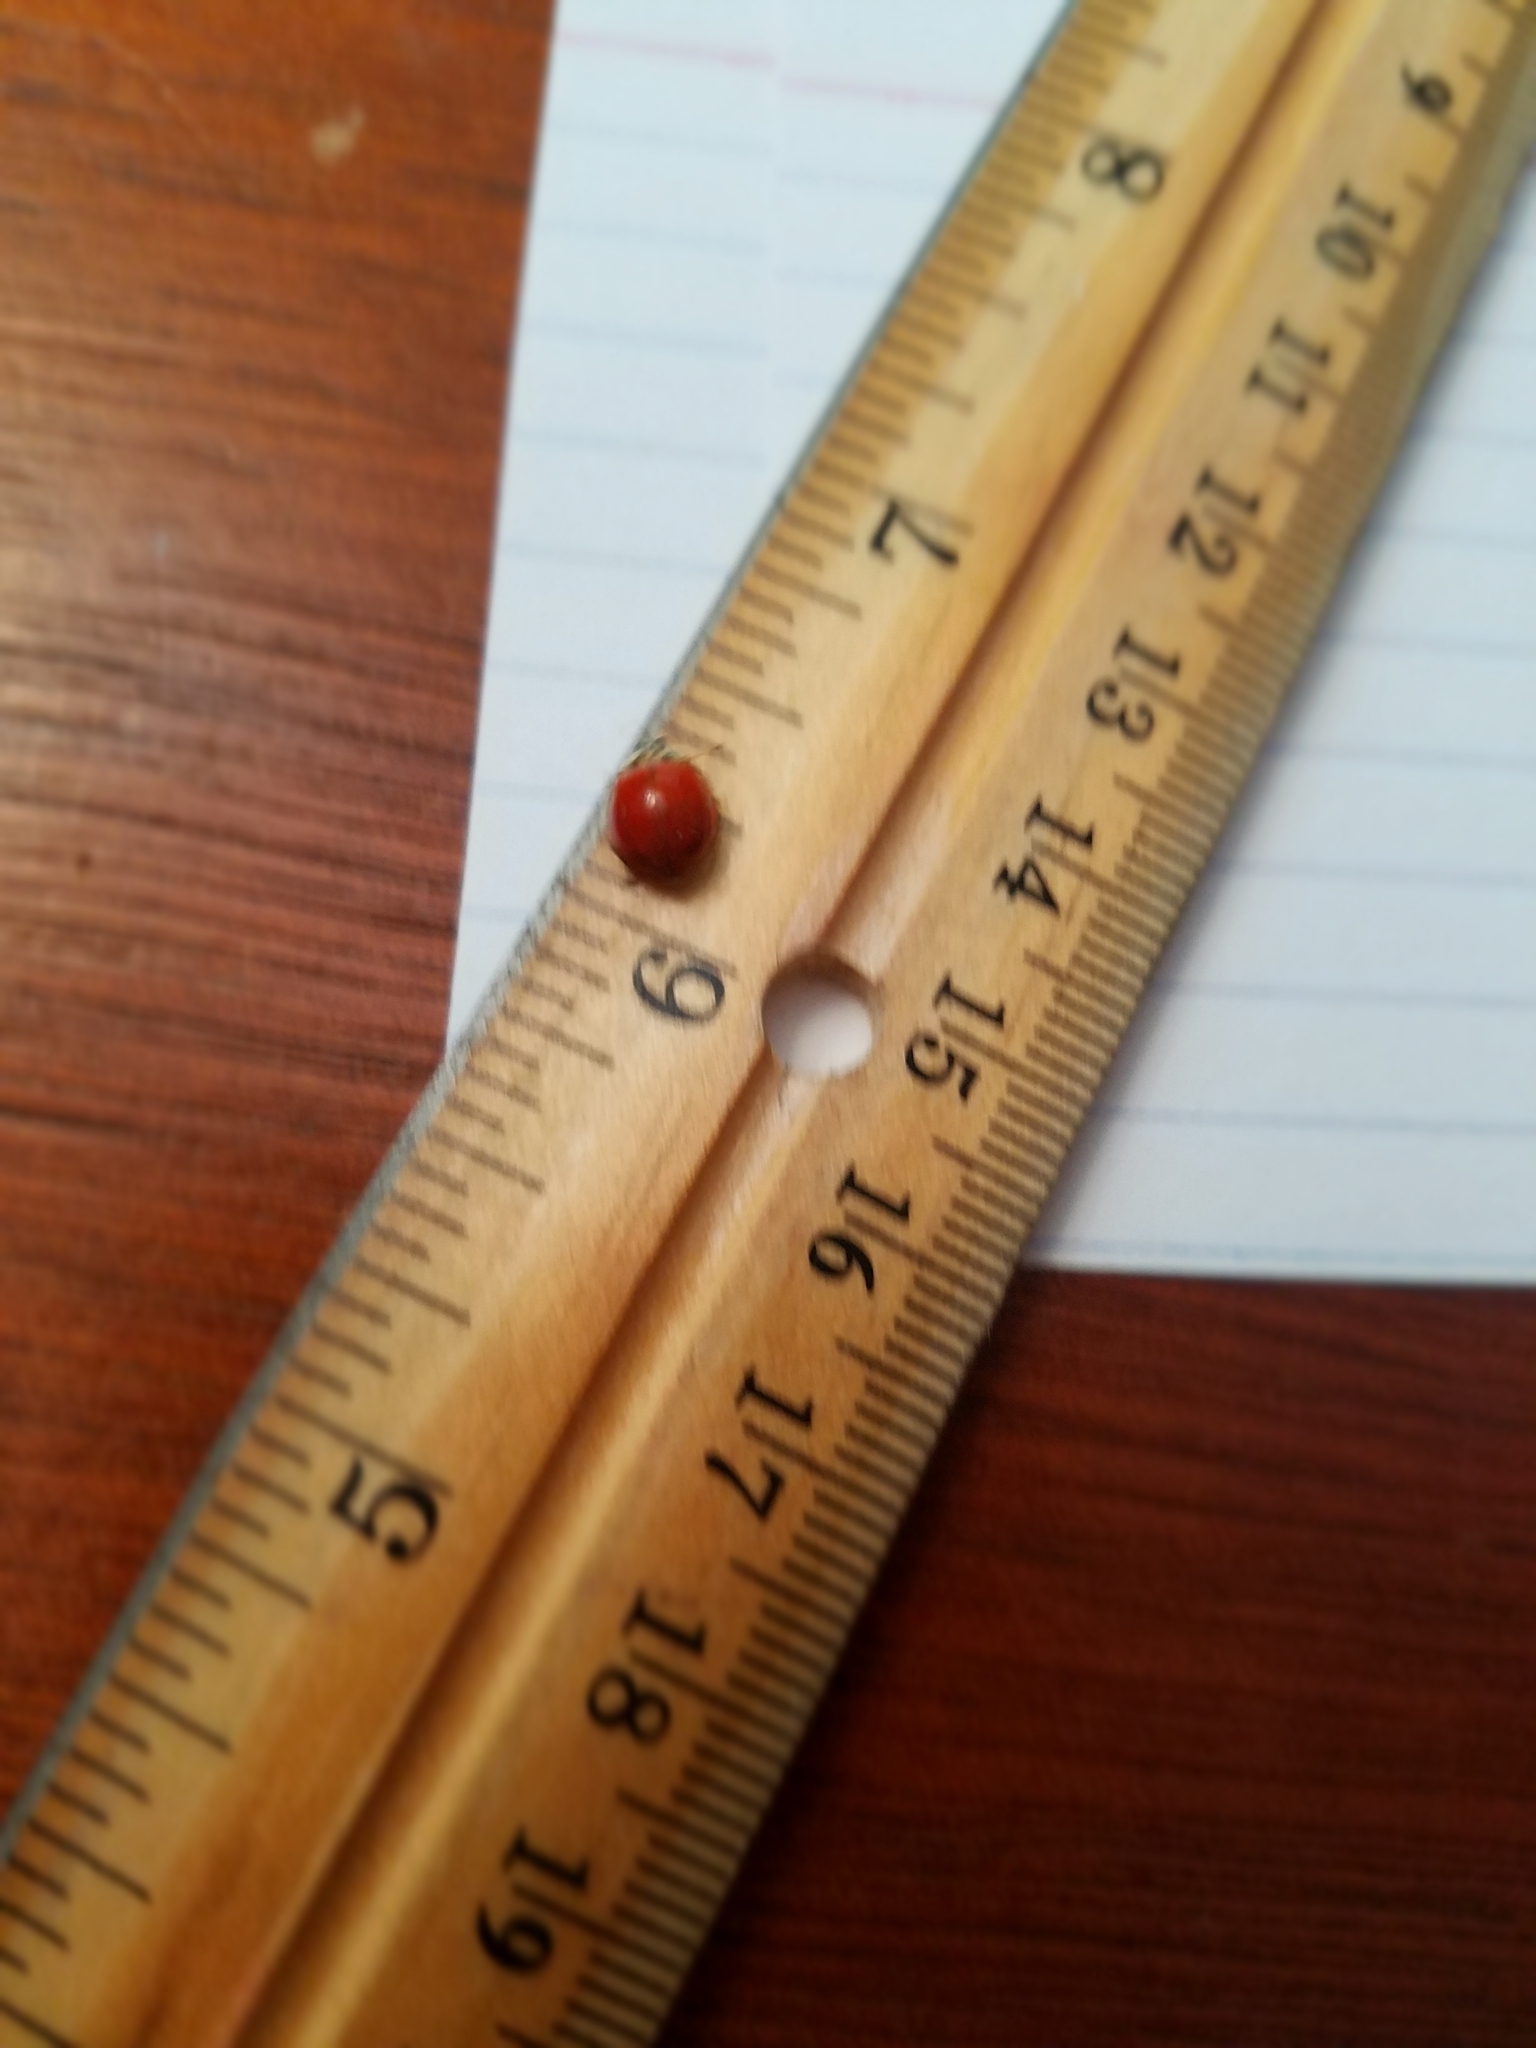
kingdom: Animalia
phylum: Arthropoda
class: Insecta
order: Coleoptera
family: Coccinellidae
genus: Harmonia
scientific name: Harmonia axyridis
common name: Harlequin ladybird
